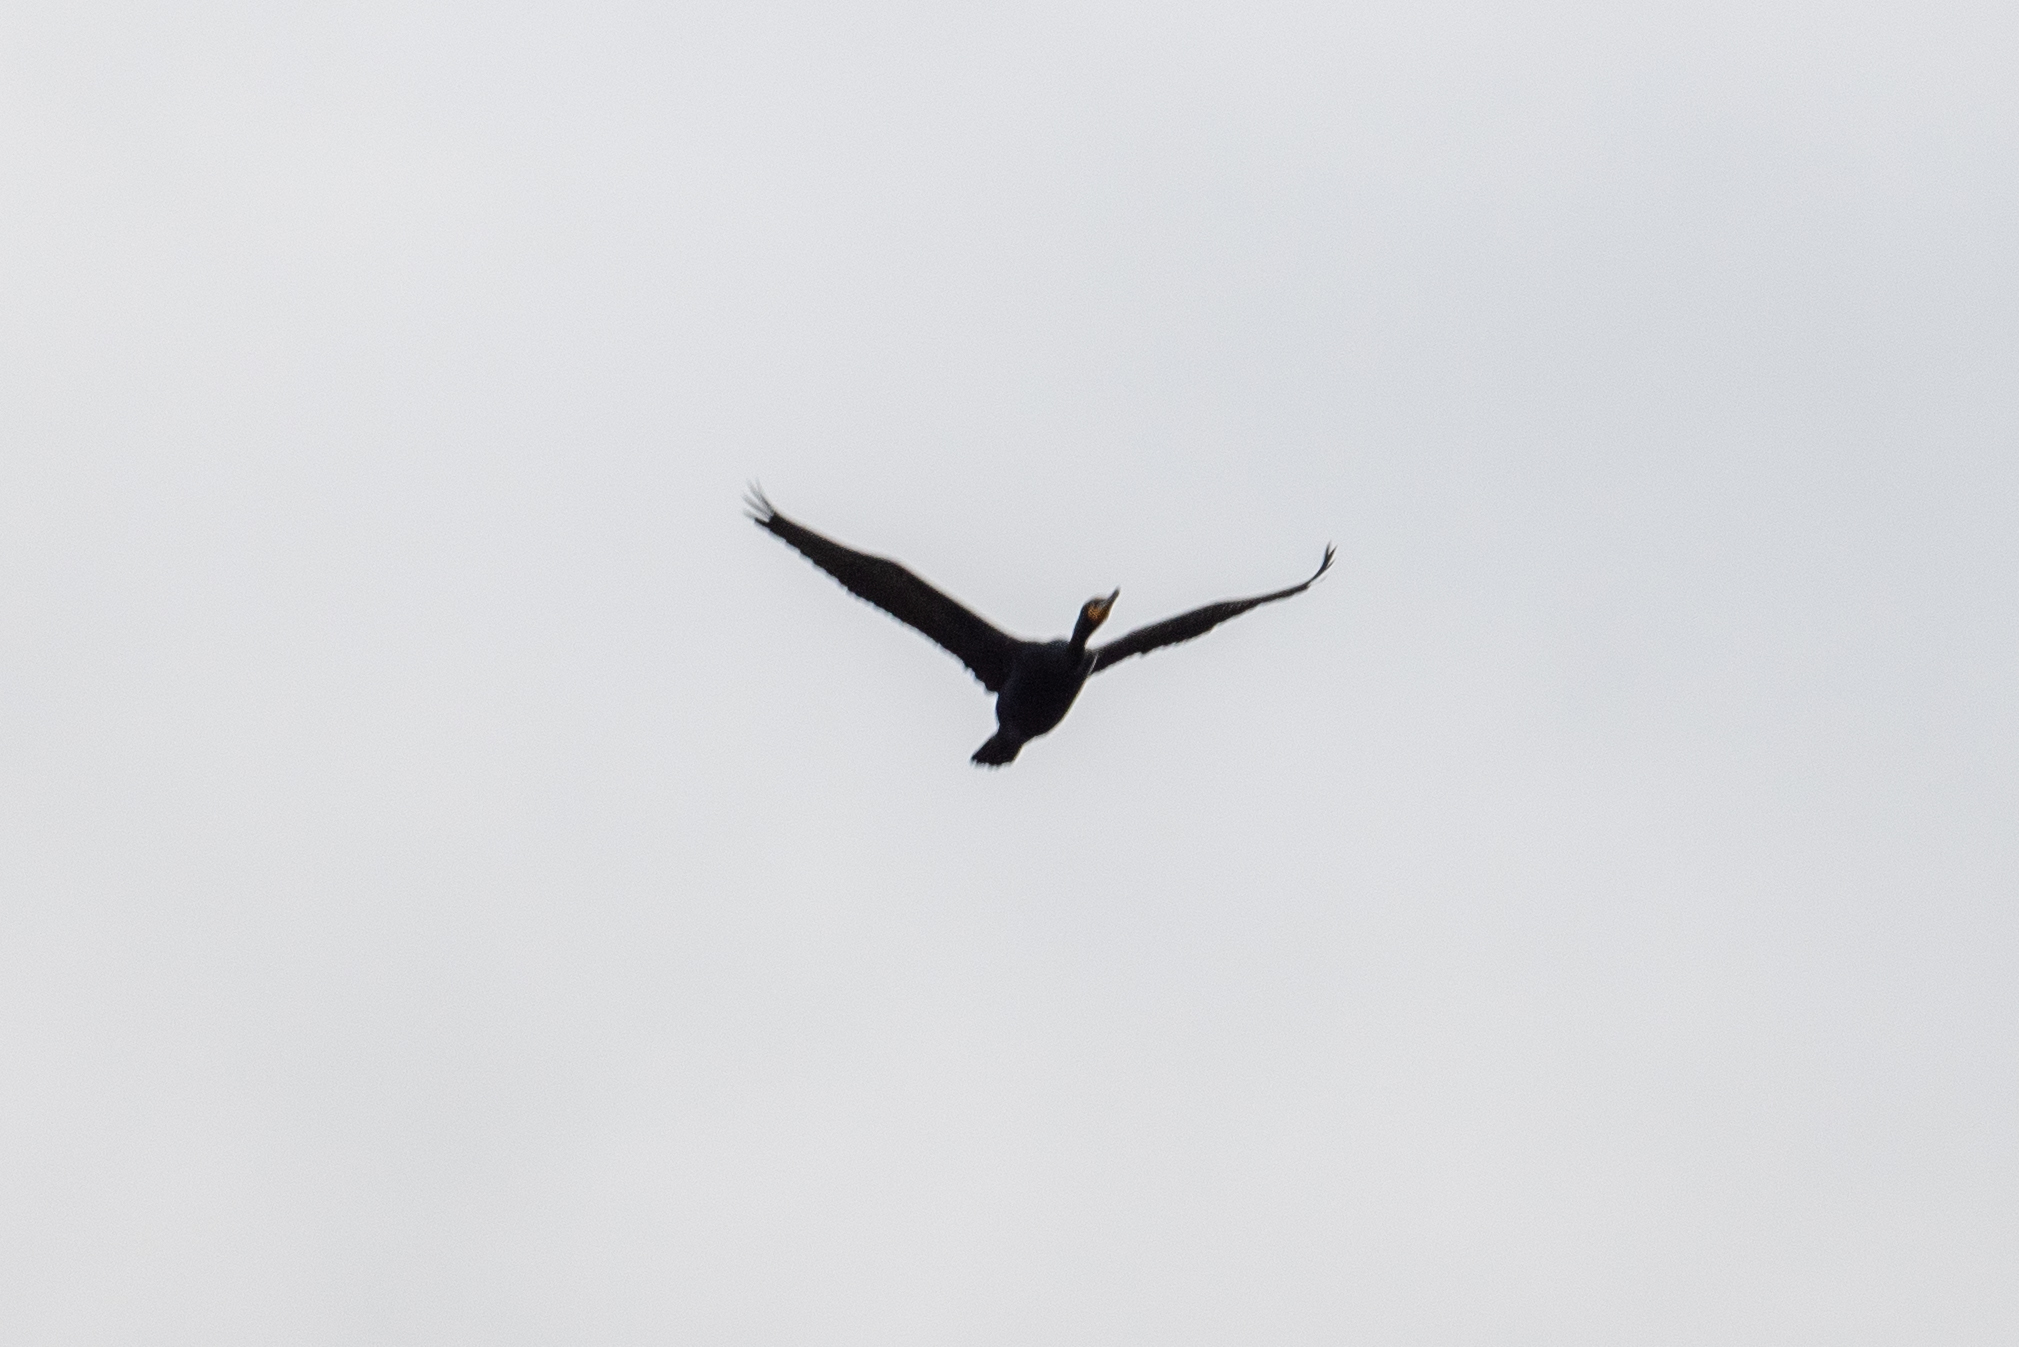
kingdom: Animalia
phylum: Chordata
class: Aves
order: Suliformes
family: Phalacrocoracidae
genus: Phalacrocorax
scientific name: Phalacrocorax auritus
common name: Double-crested cormorant
